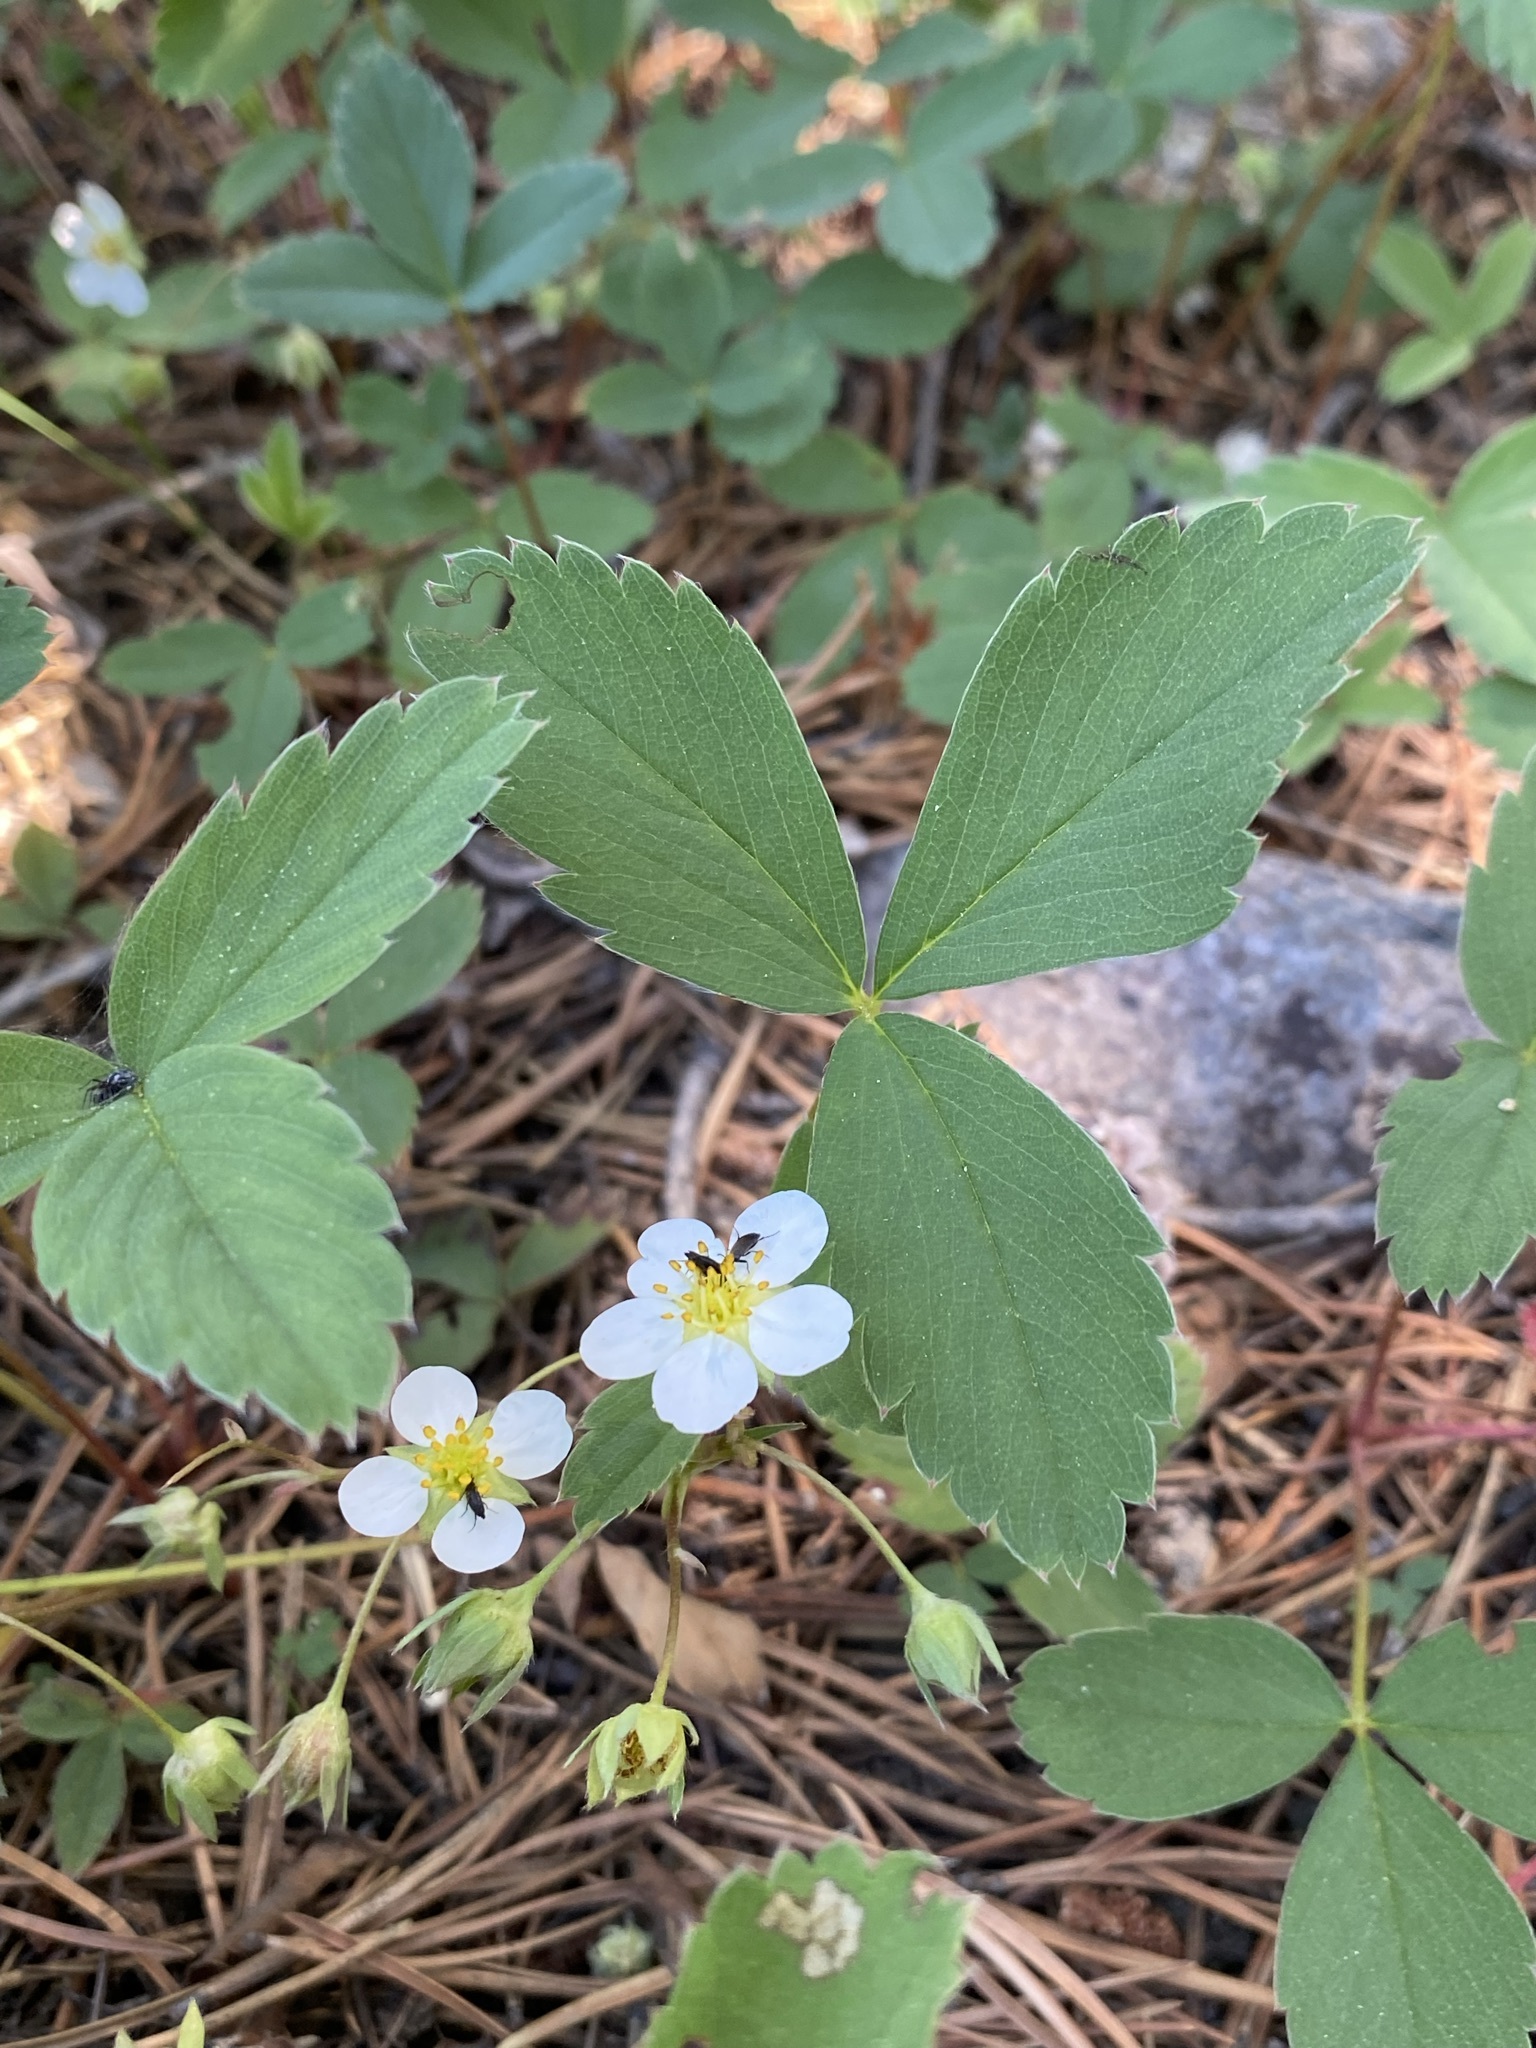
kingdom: Plantae
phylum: Tracheophyta
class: Magnoliopsida
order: Rosales
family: Rosaceae
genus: Fragaria
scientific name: Fragaria virginiana
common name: Thickleaved wild strawberry
